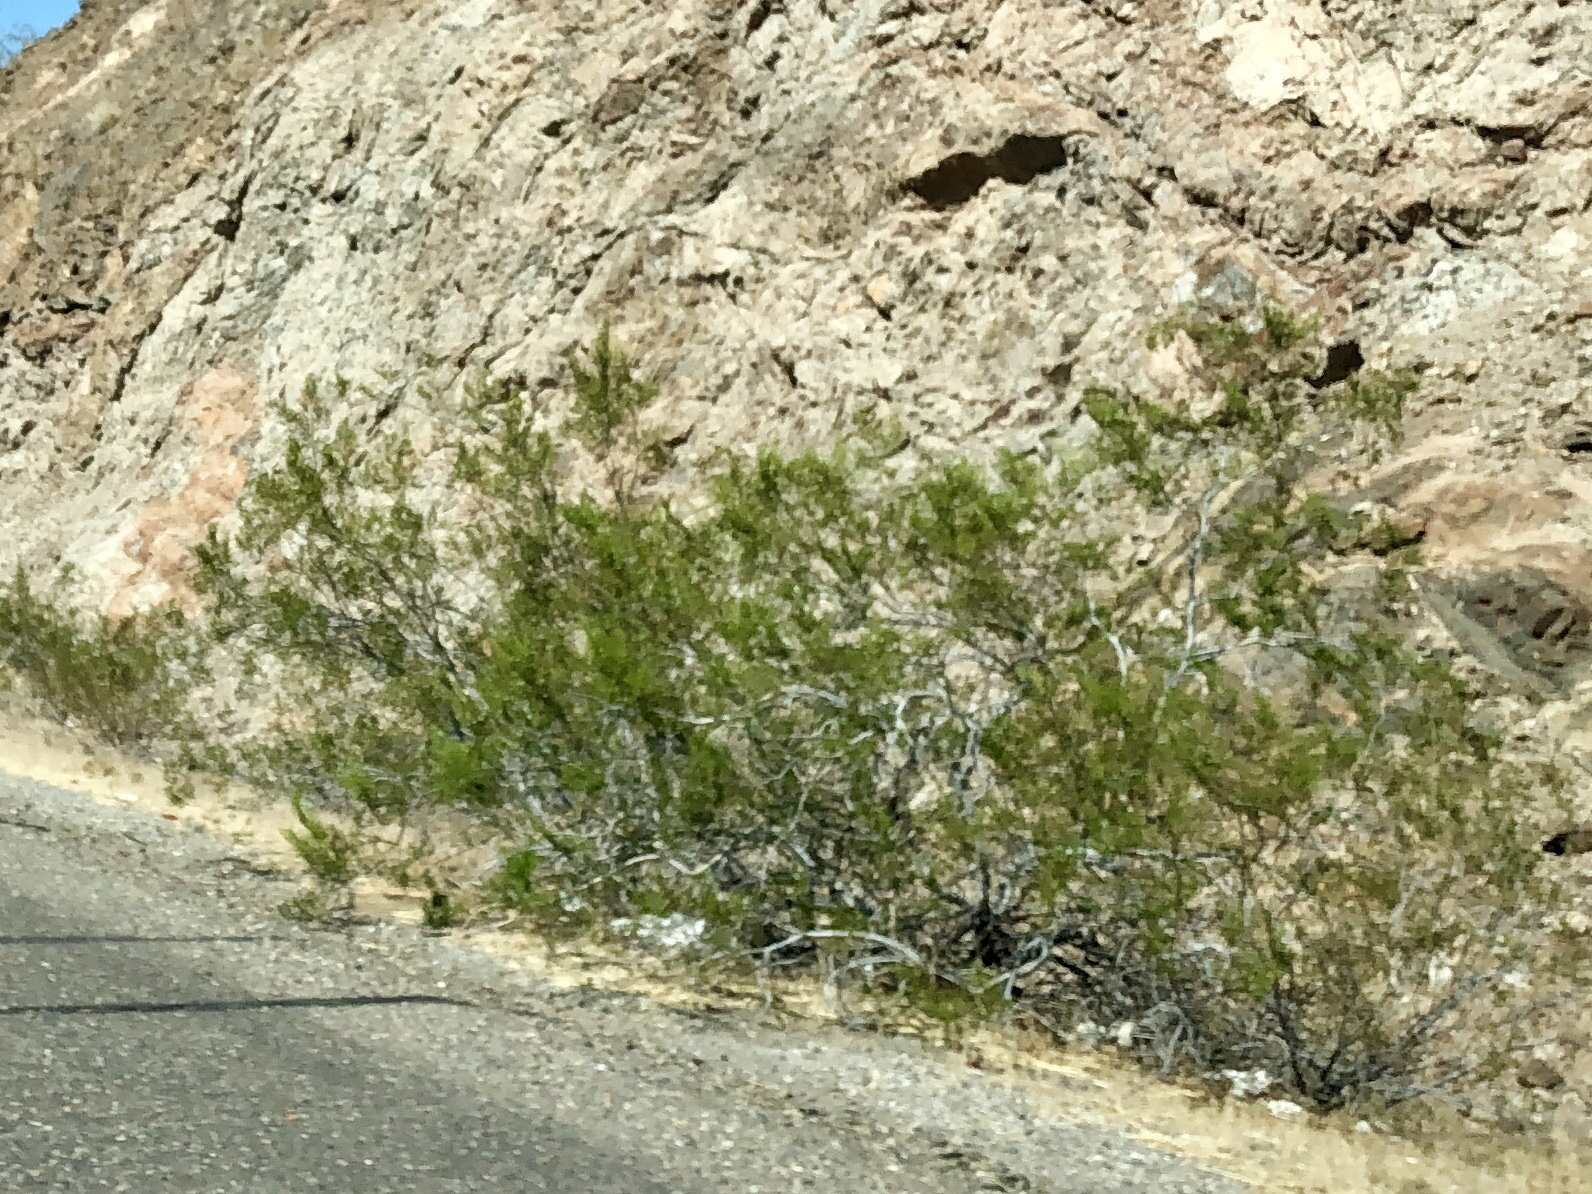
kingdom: Plantae
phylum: Tracheophyta
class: Magnoliopsida
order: Zygophyllales
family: Zygophyllaceae
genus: Larrea
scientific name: Larrea tridentata
